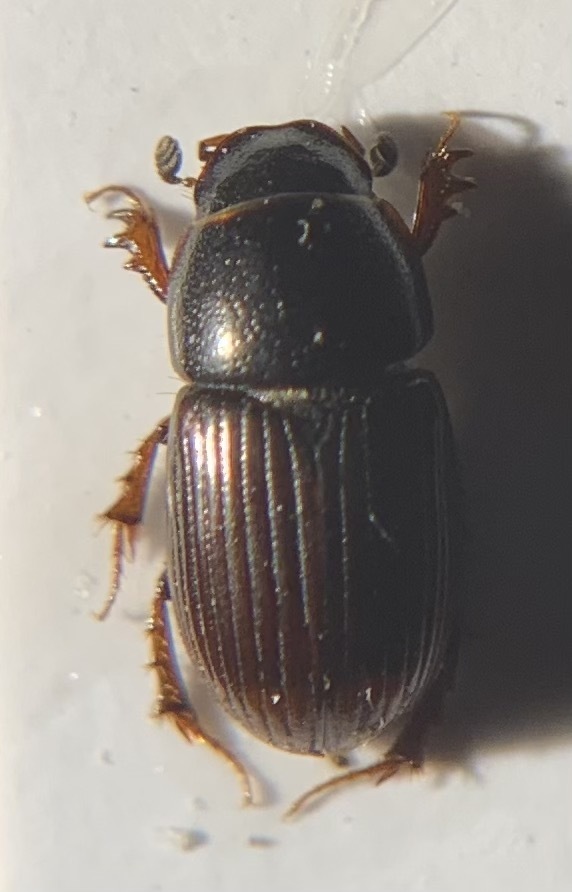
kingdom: Animalia
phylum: Arthropoda
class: Insecta
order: Coleoptera
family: Scarabaeidae
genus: Esymus
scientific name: Esymus pusillus
